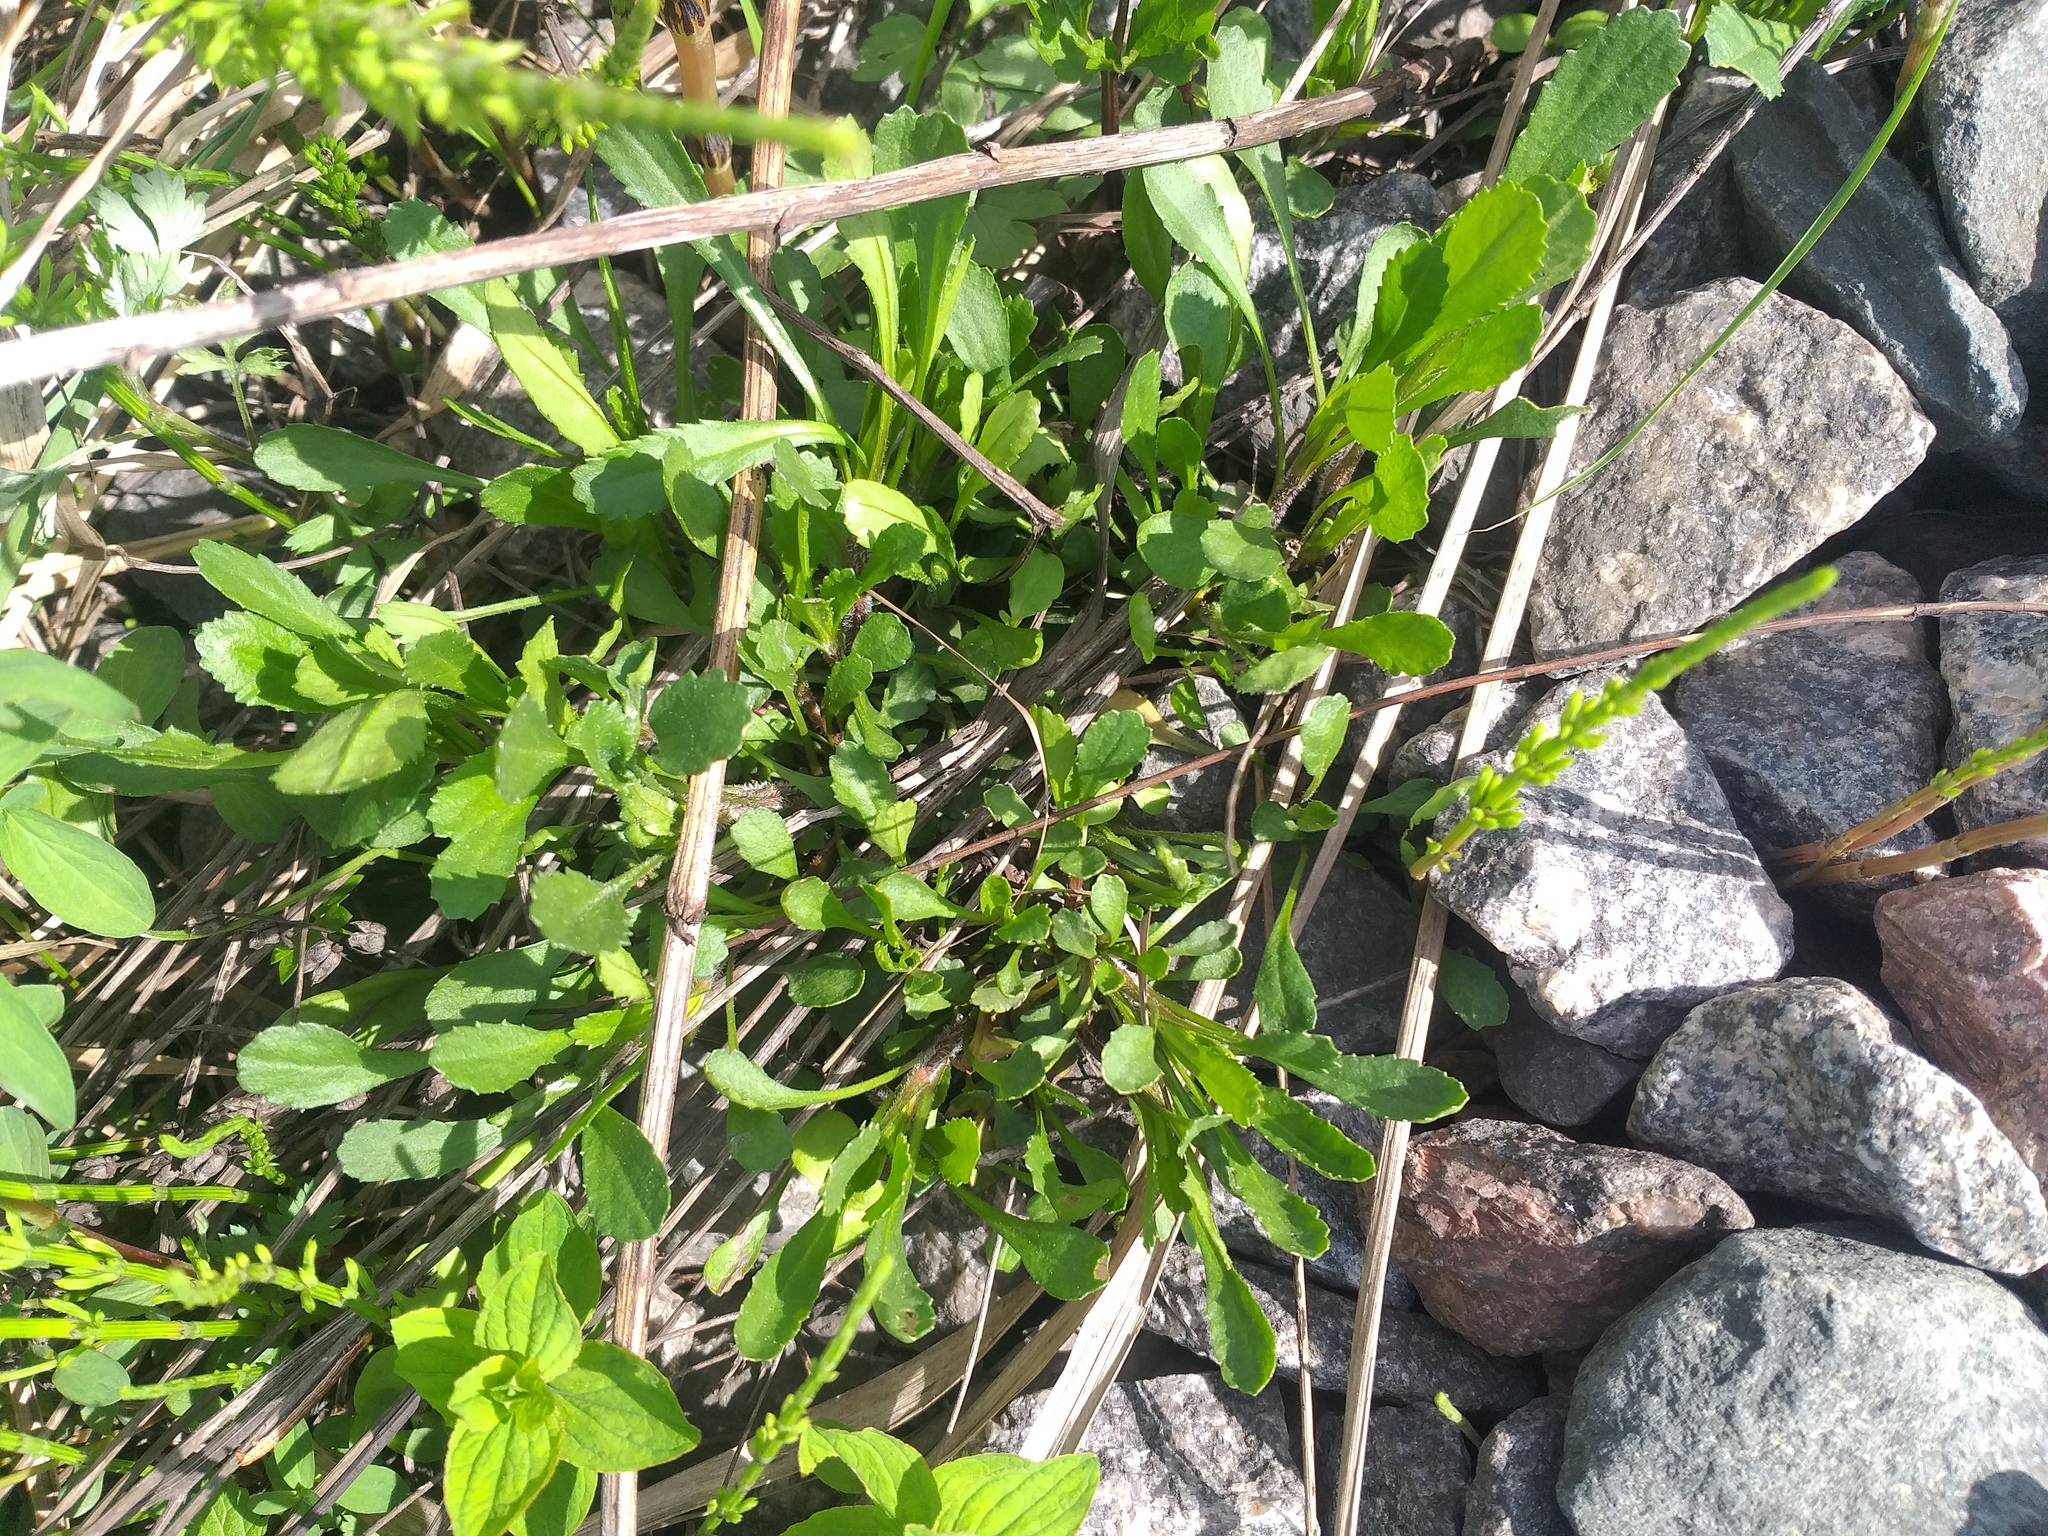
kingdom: Plantae
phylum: Tracheophyta
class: Magnoliopsida
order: Asterales
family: Asteraceae
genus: Leucanthemum
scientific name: Leucanthemum vulgare
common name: Oxeye daisy
